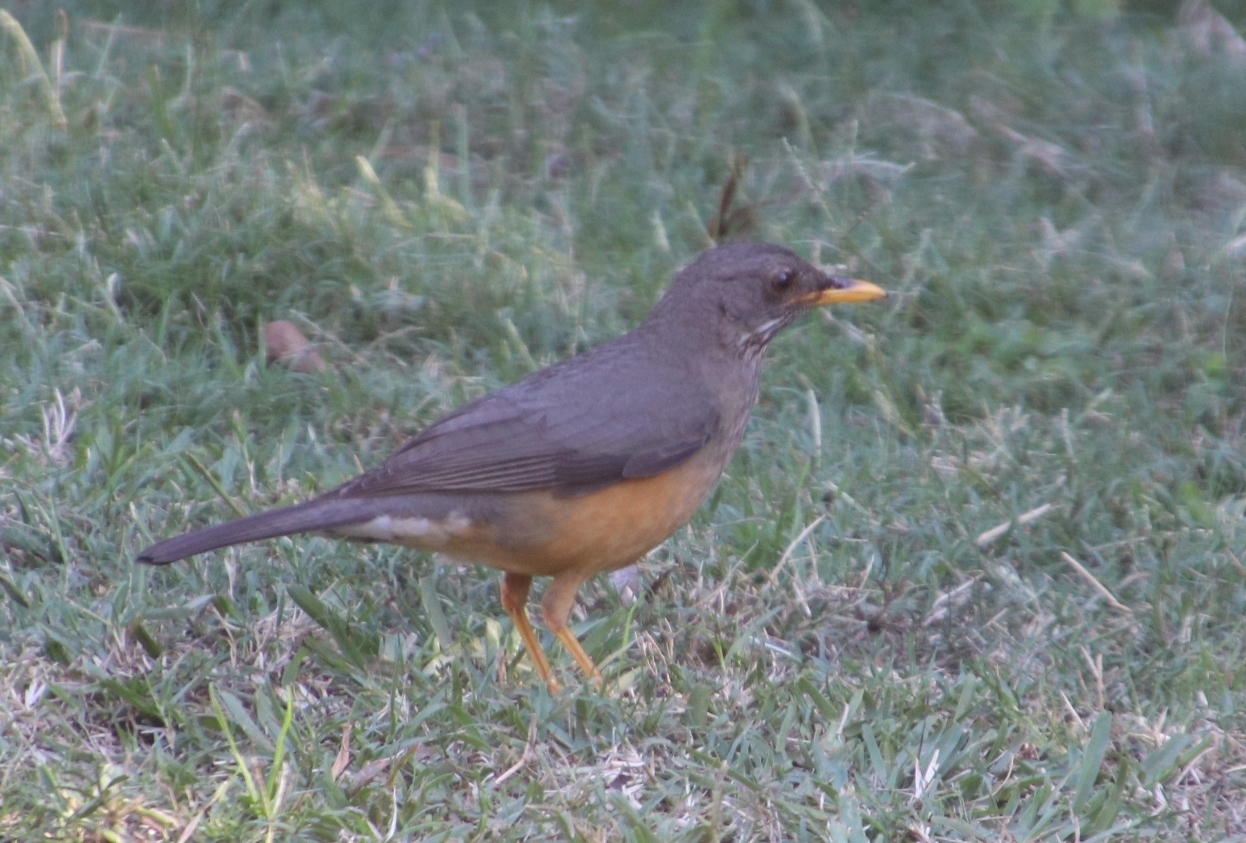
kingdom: Animalia
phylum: Chordata
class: Aves
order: Passeriformes
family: Turdidae
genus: Turdus
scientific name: Turdus olivaceus
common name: Olive thrush
